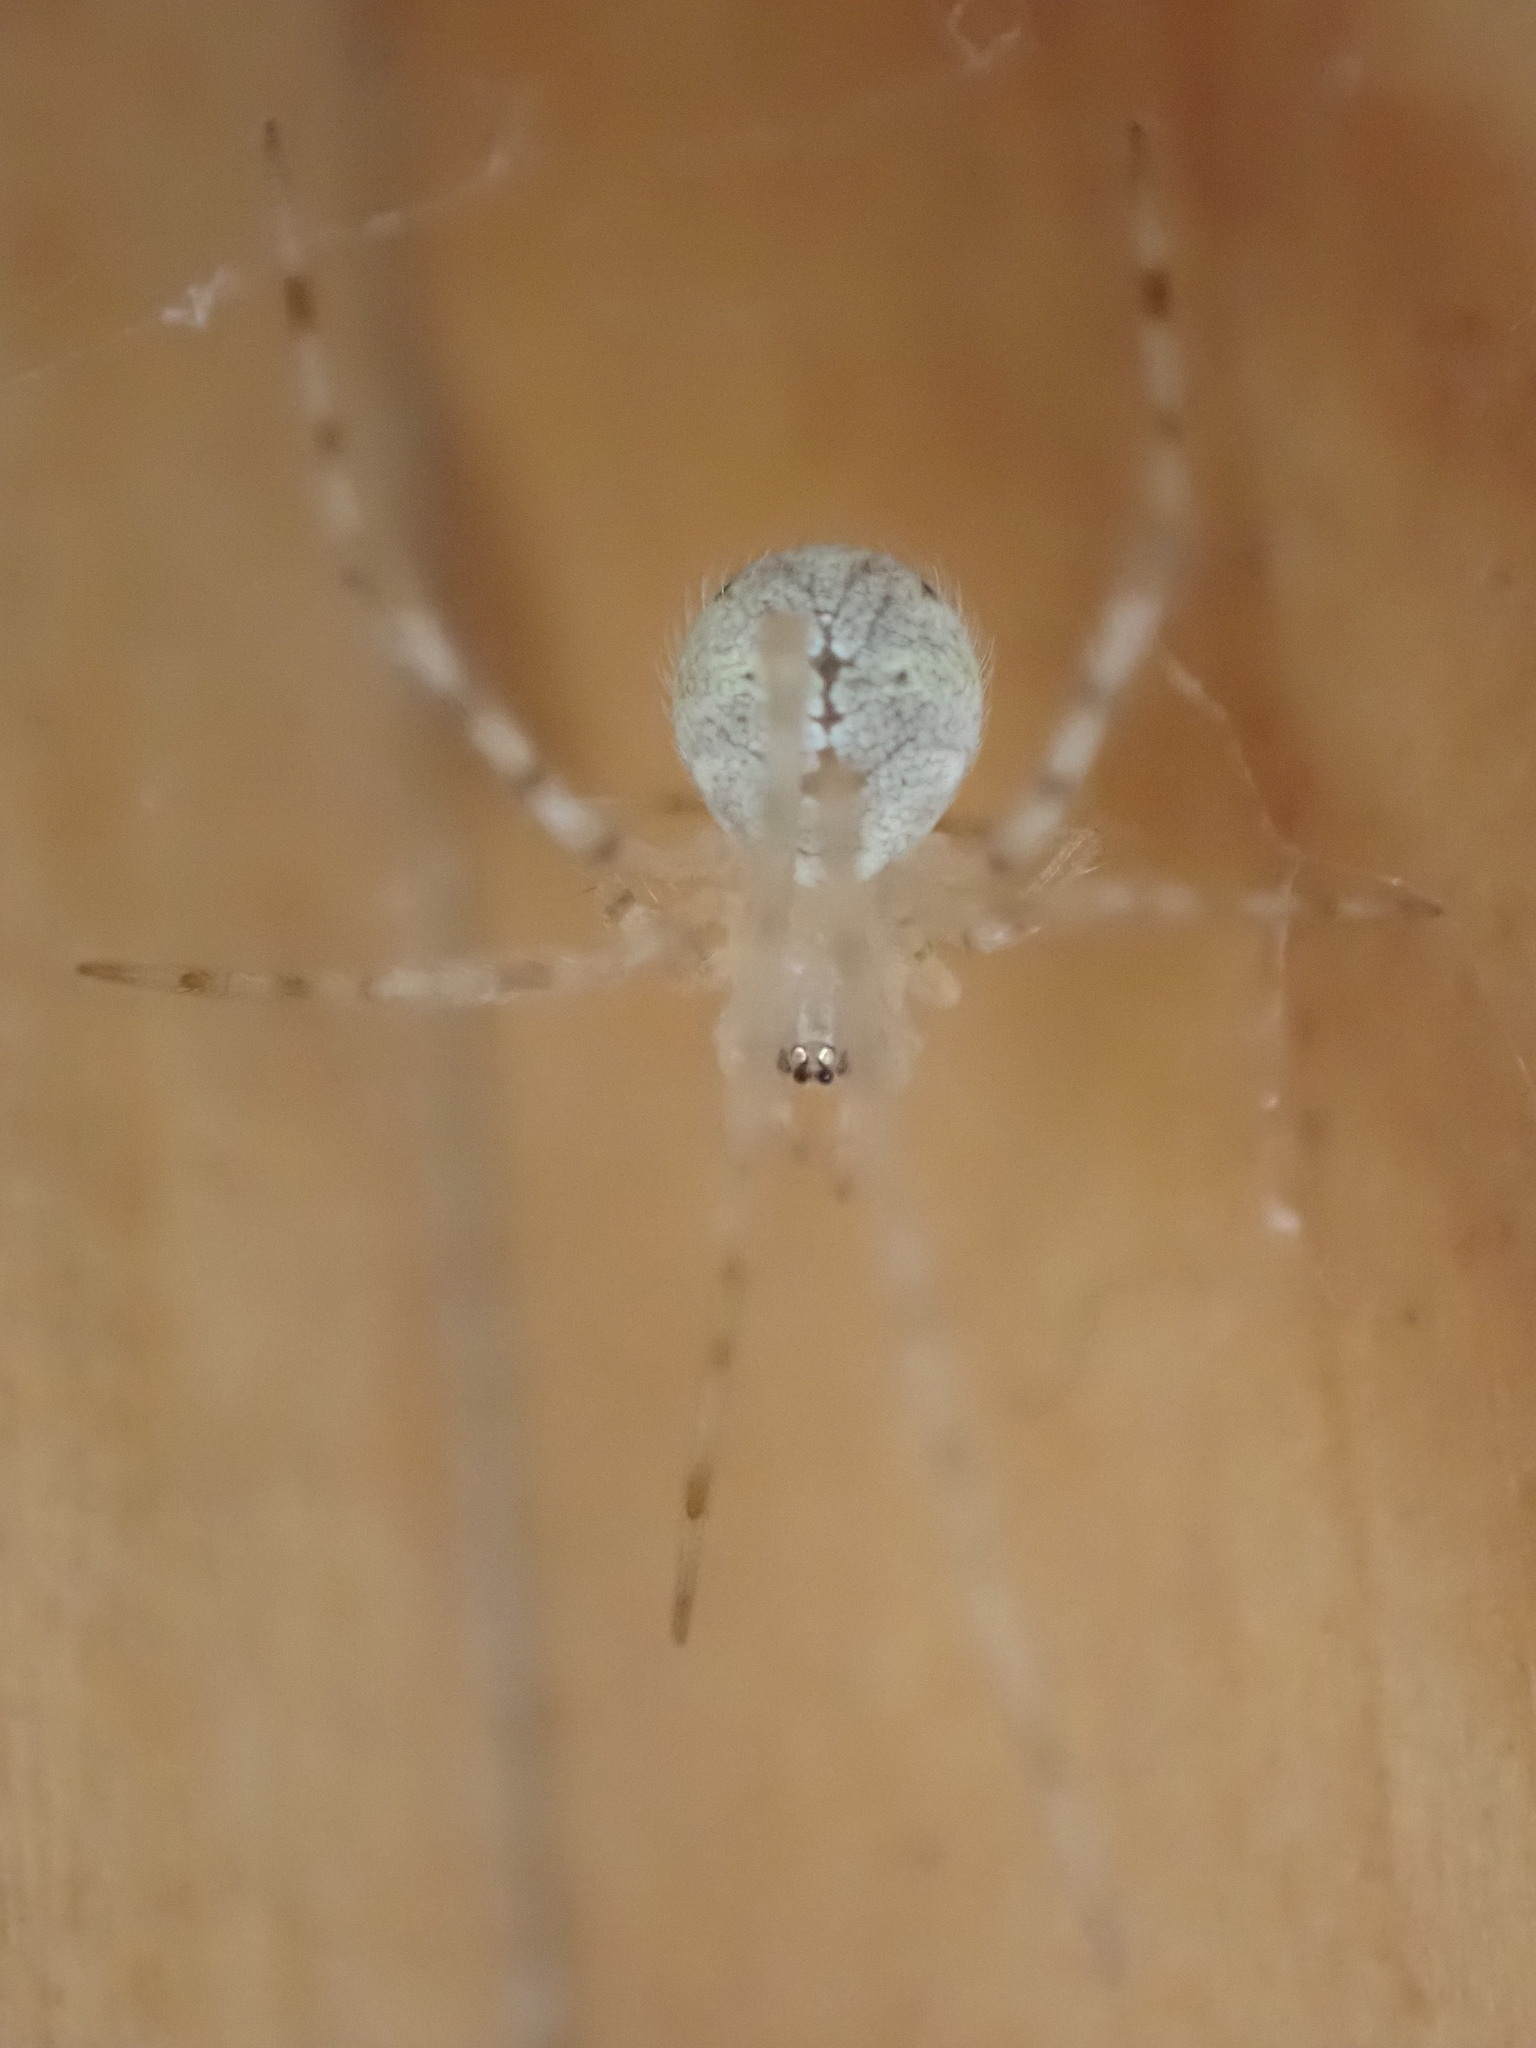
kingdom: Animalia
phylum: Arthropoda
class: Arachnida
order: Araneae
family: Theridiidae
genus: Cryptachaea
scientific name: Cryptachaea gigantipes
